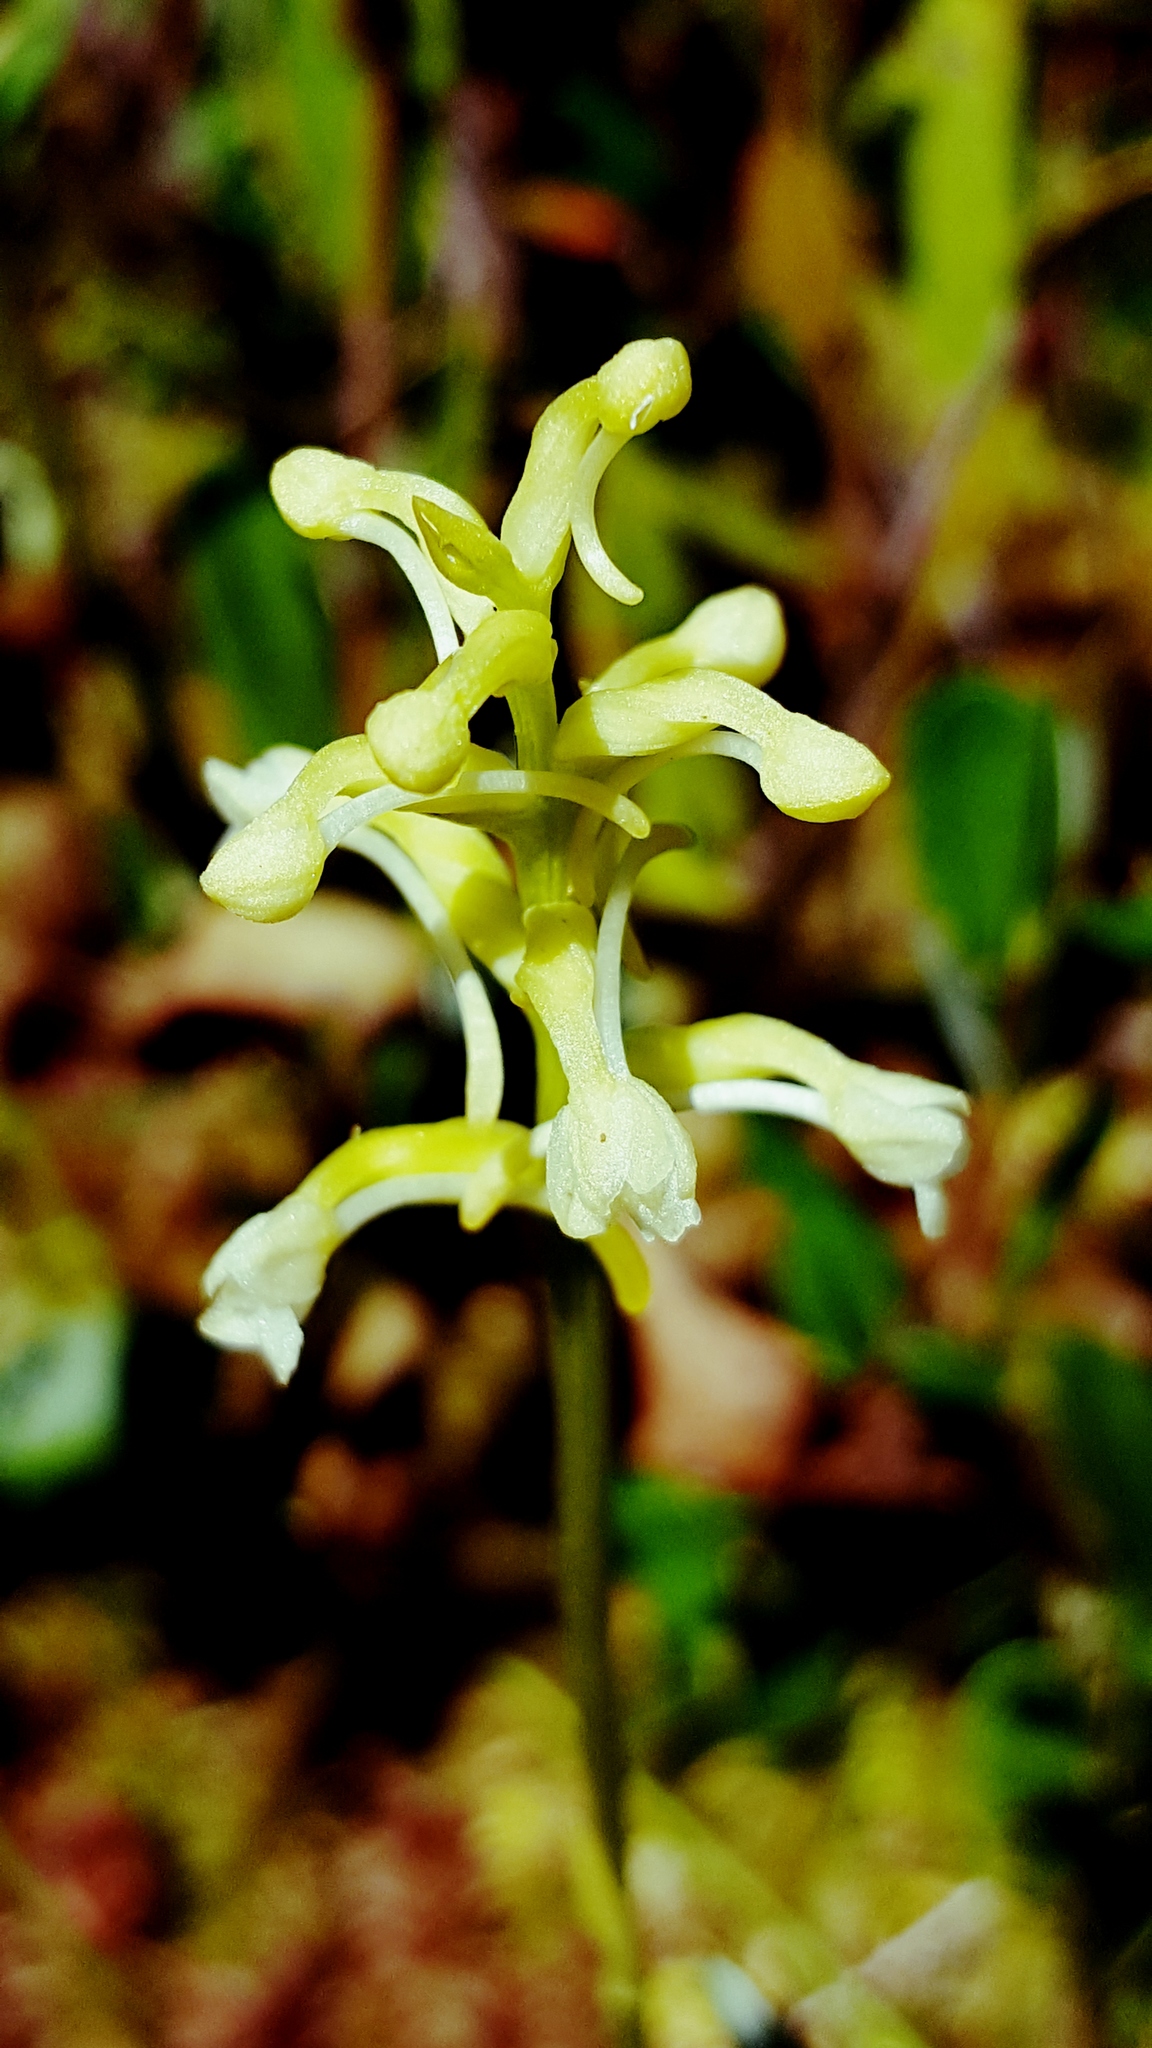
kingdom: Plantae
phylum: Tracheophyta
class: Liliopsida
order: Asparagales
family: Orchidaceae
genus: Platanthera
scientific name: Platanthera clavellata
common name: Club-spur orchid
